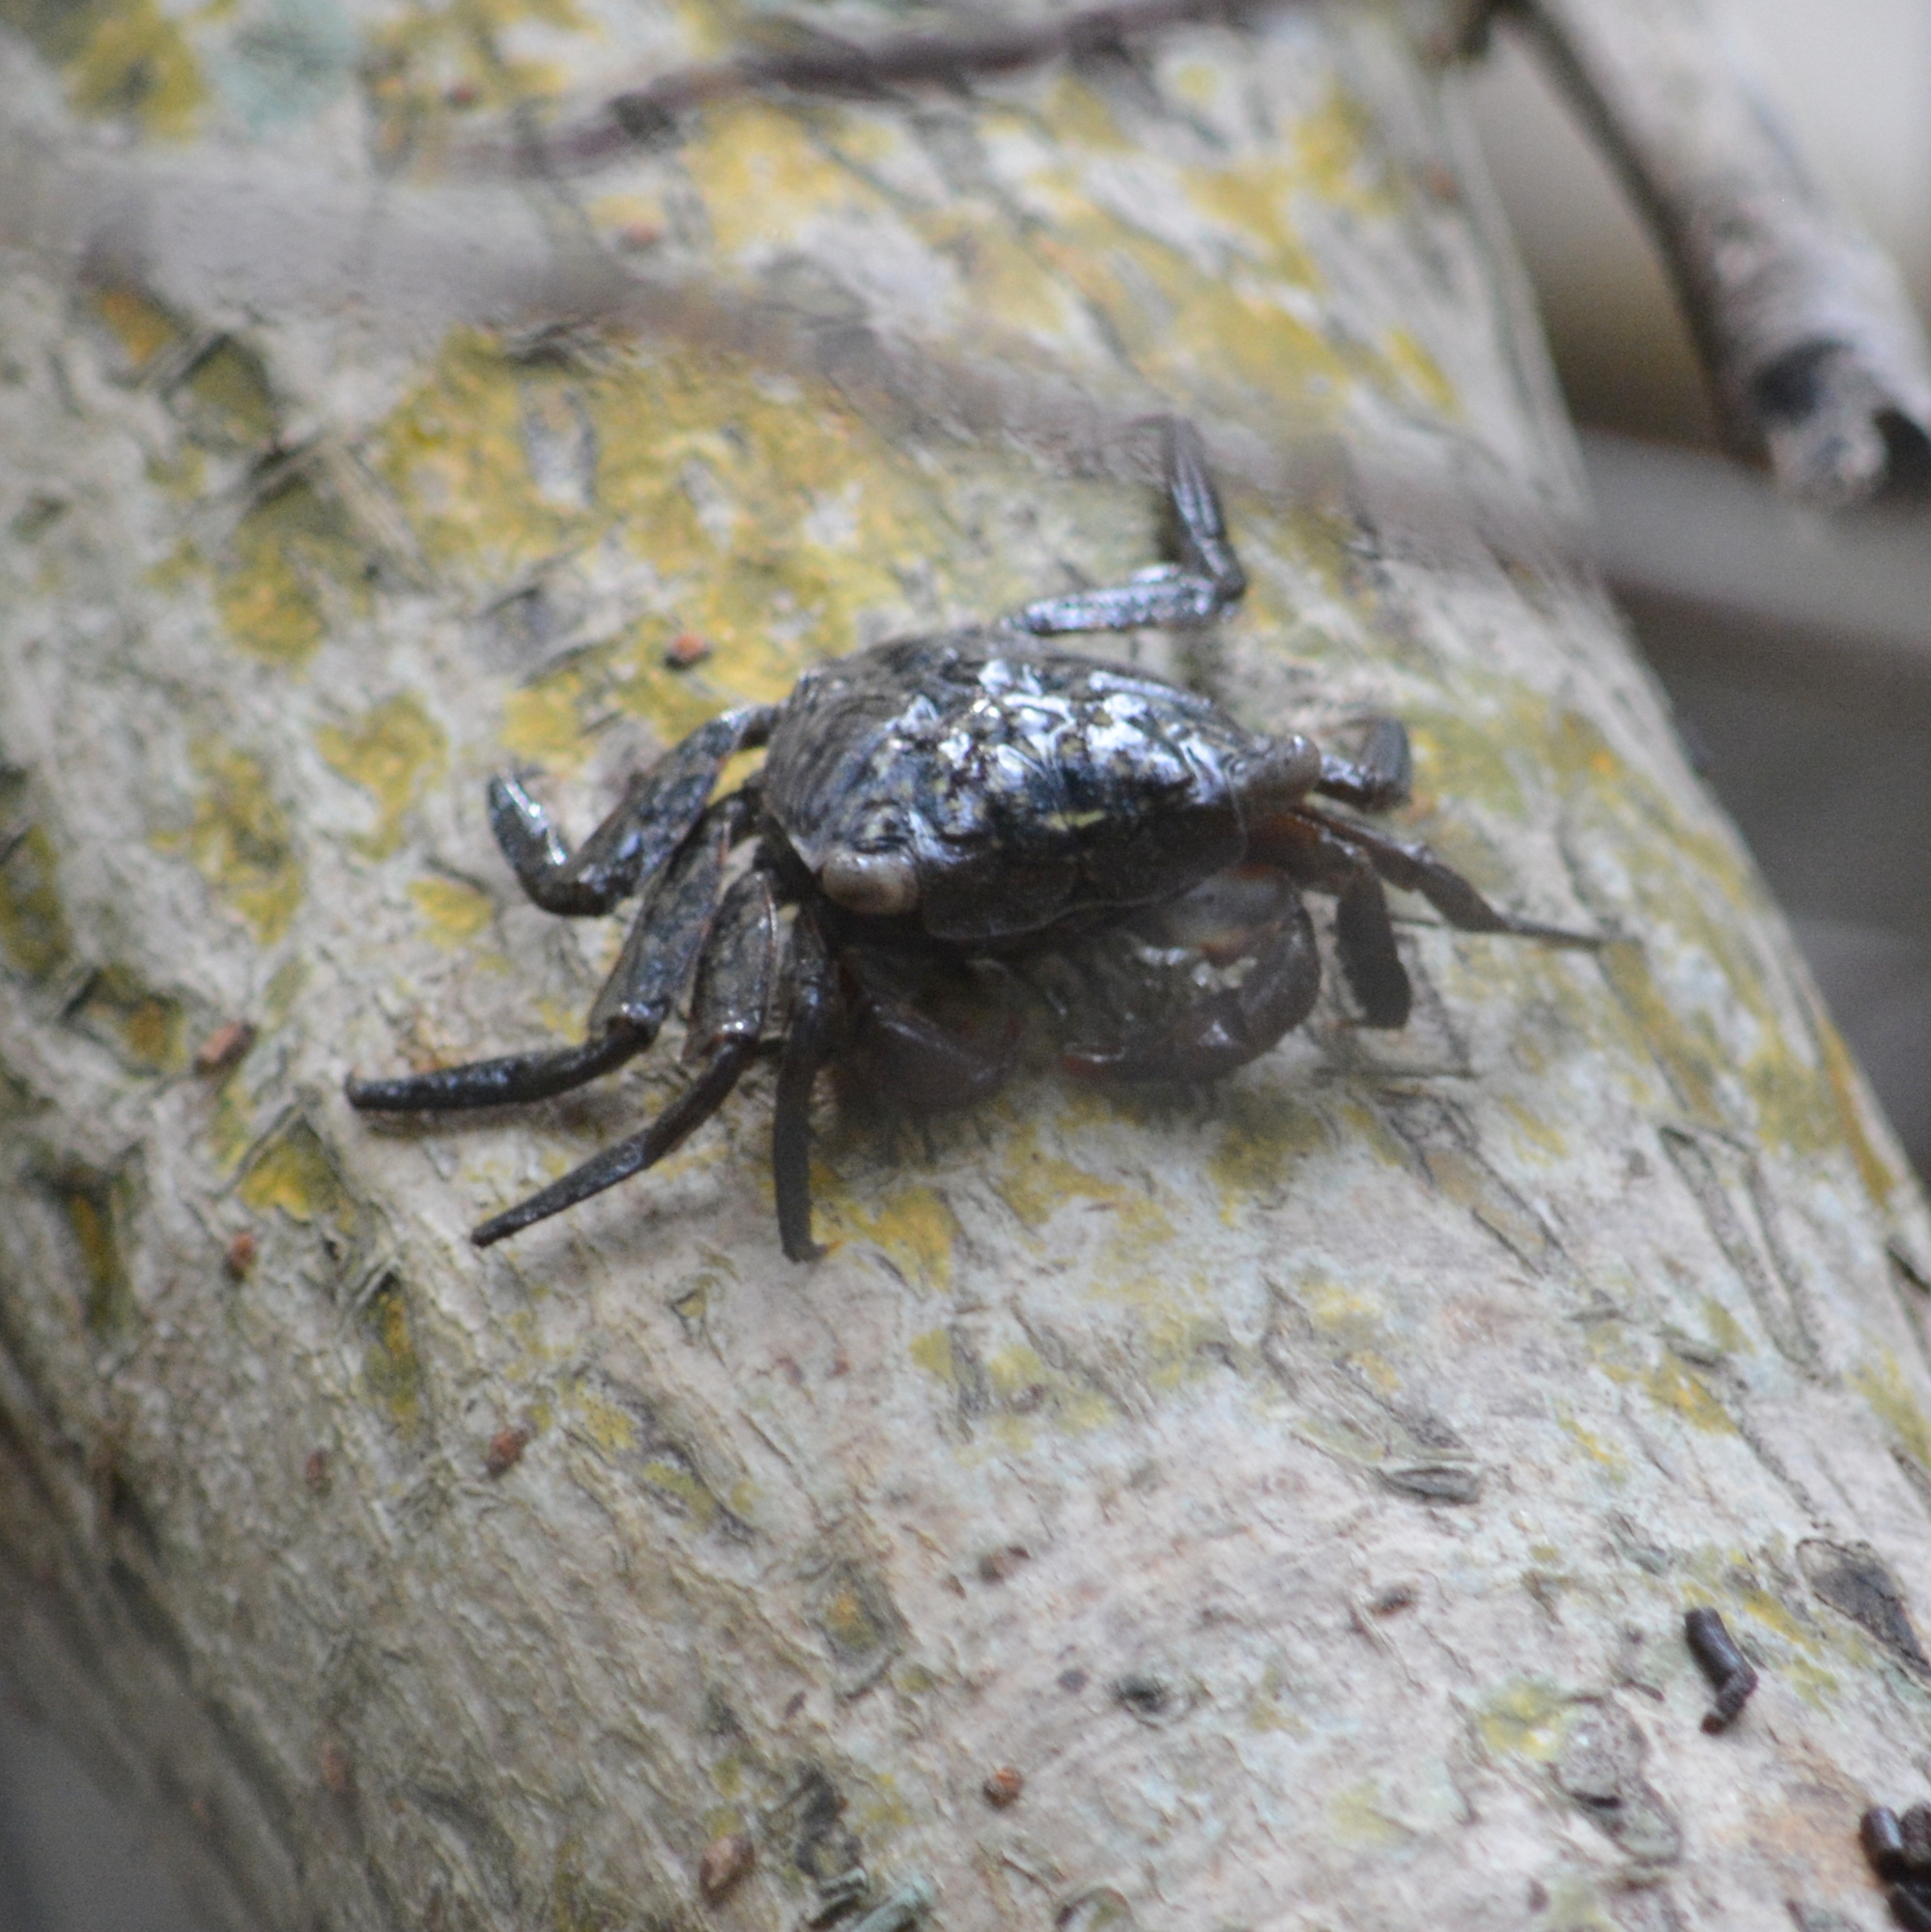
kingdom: Animalia
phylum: Arthropoda
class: Malacostraca
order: Decapoda
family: Sesarmidae
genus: Aratus
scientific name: Aratus pisonii
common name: Mangrove crab
